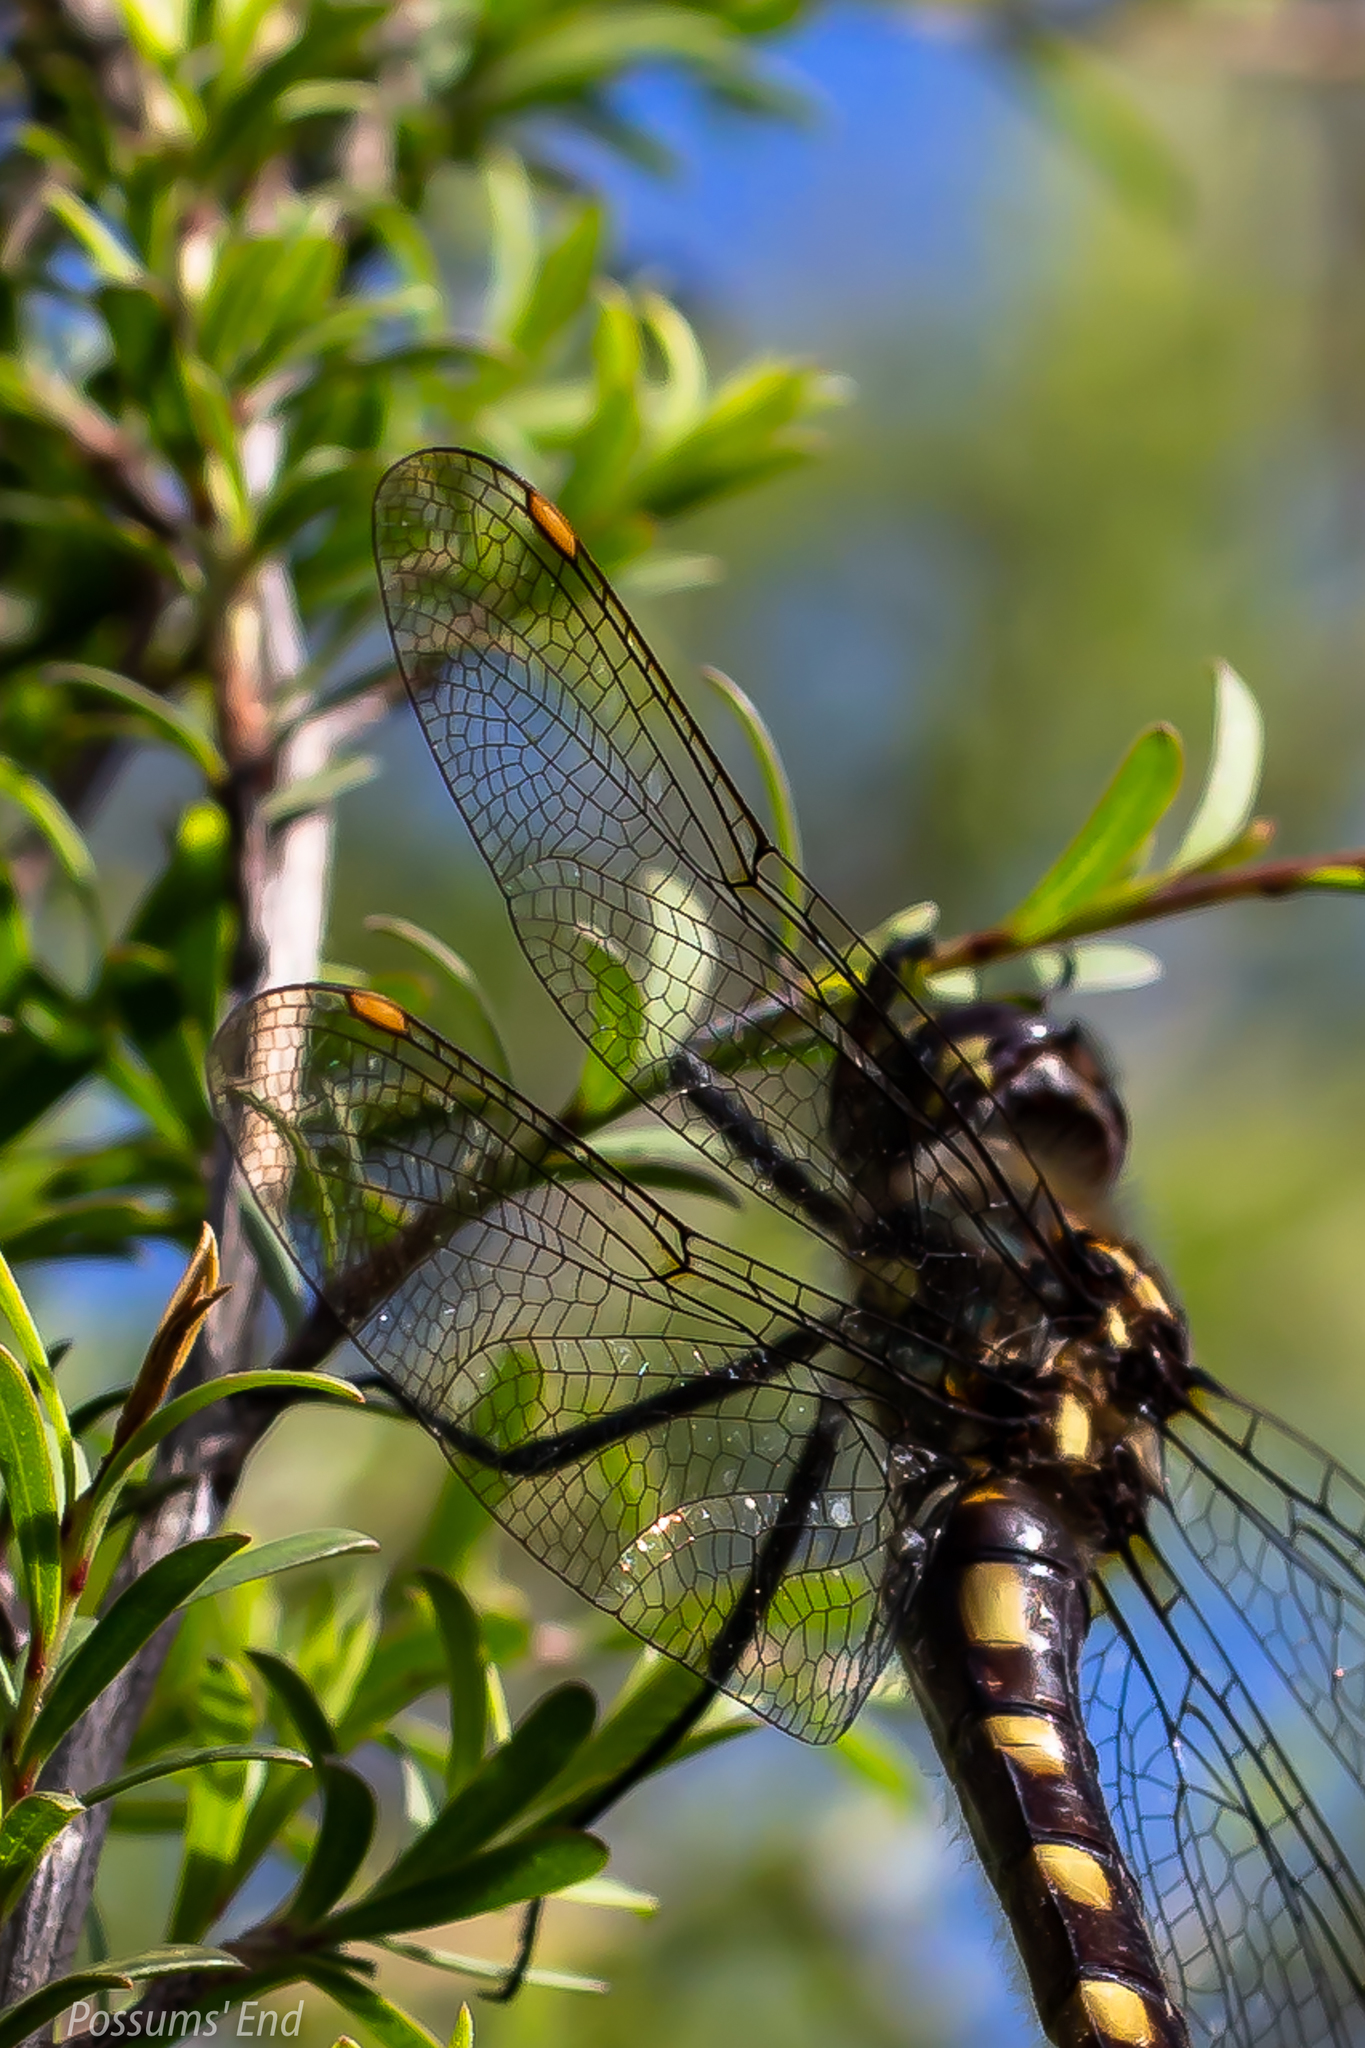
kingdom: Animalia
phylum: Arthropoda
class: Insecta
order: Odonata
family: Corduliidae
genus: Procordulia
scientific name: Procordulia grayi
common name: Yellow spotted dragonfly
